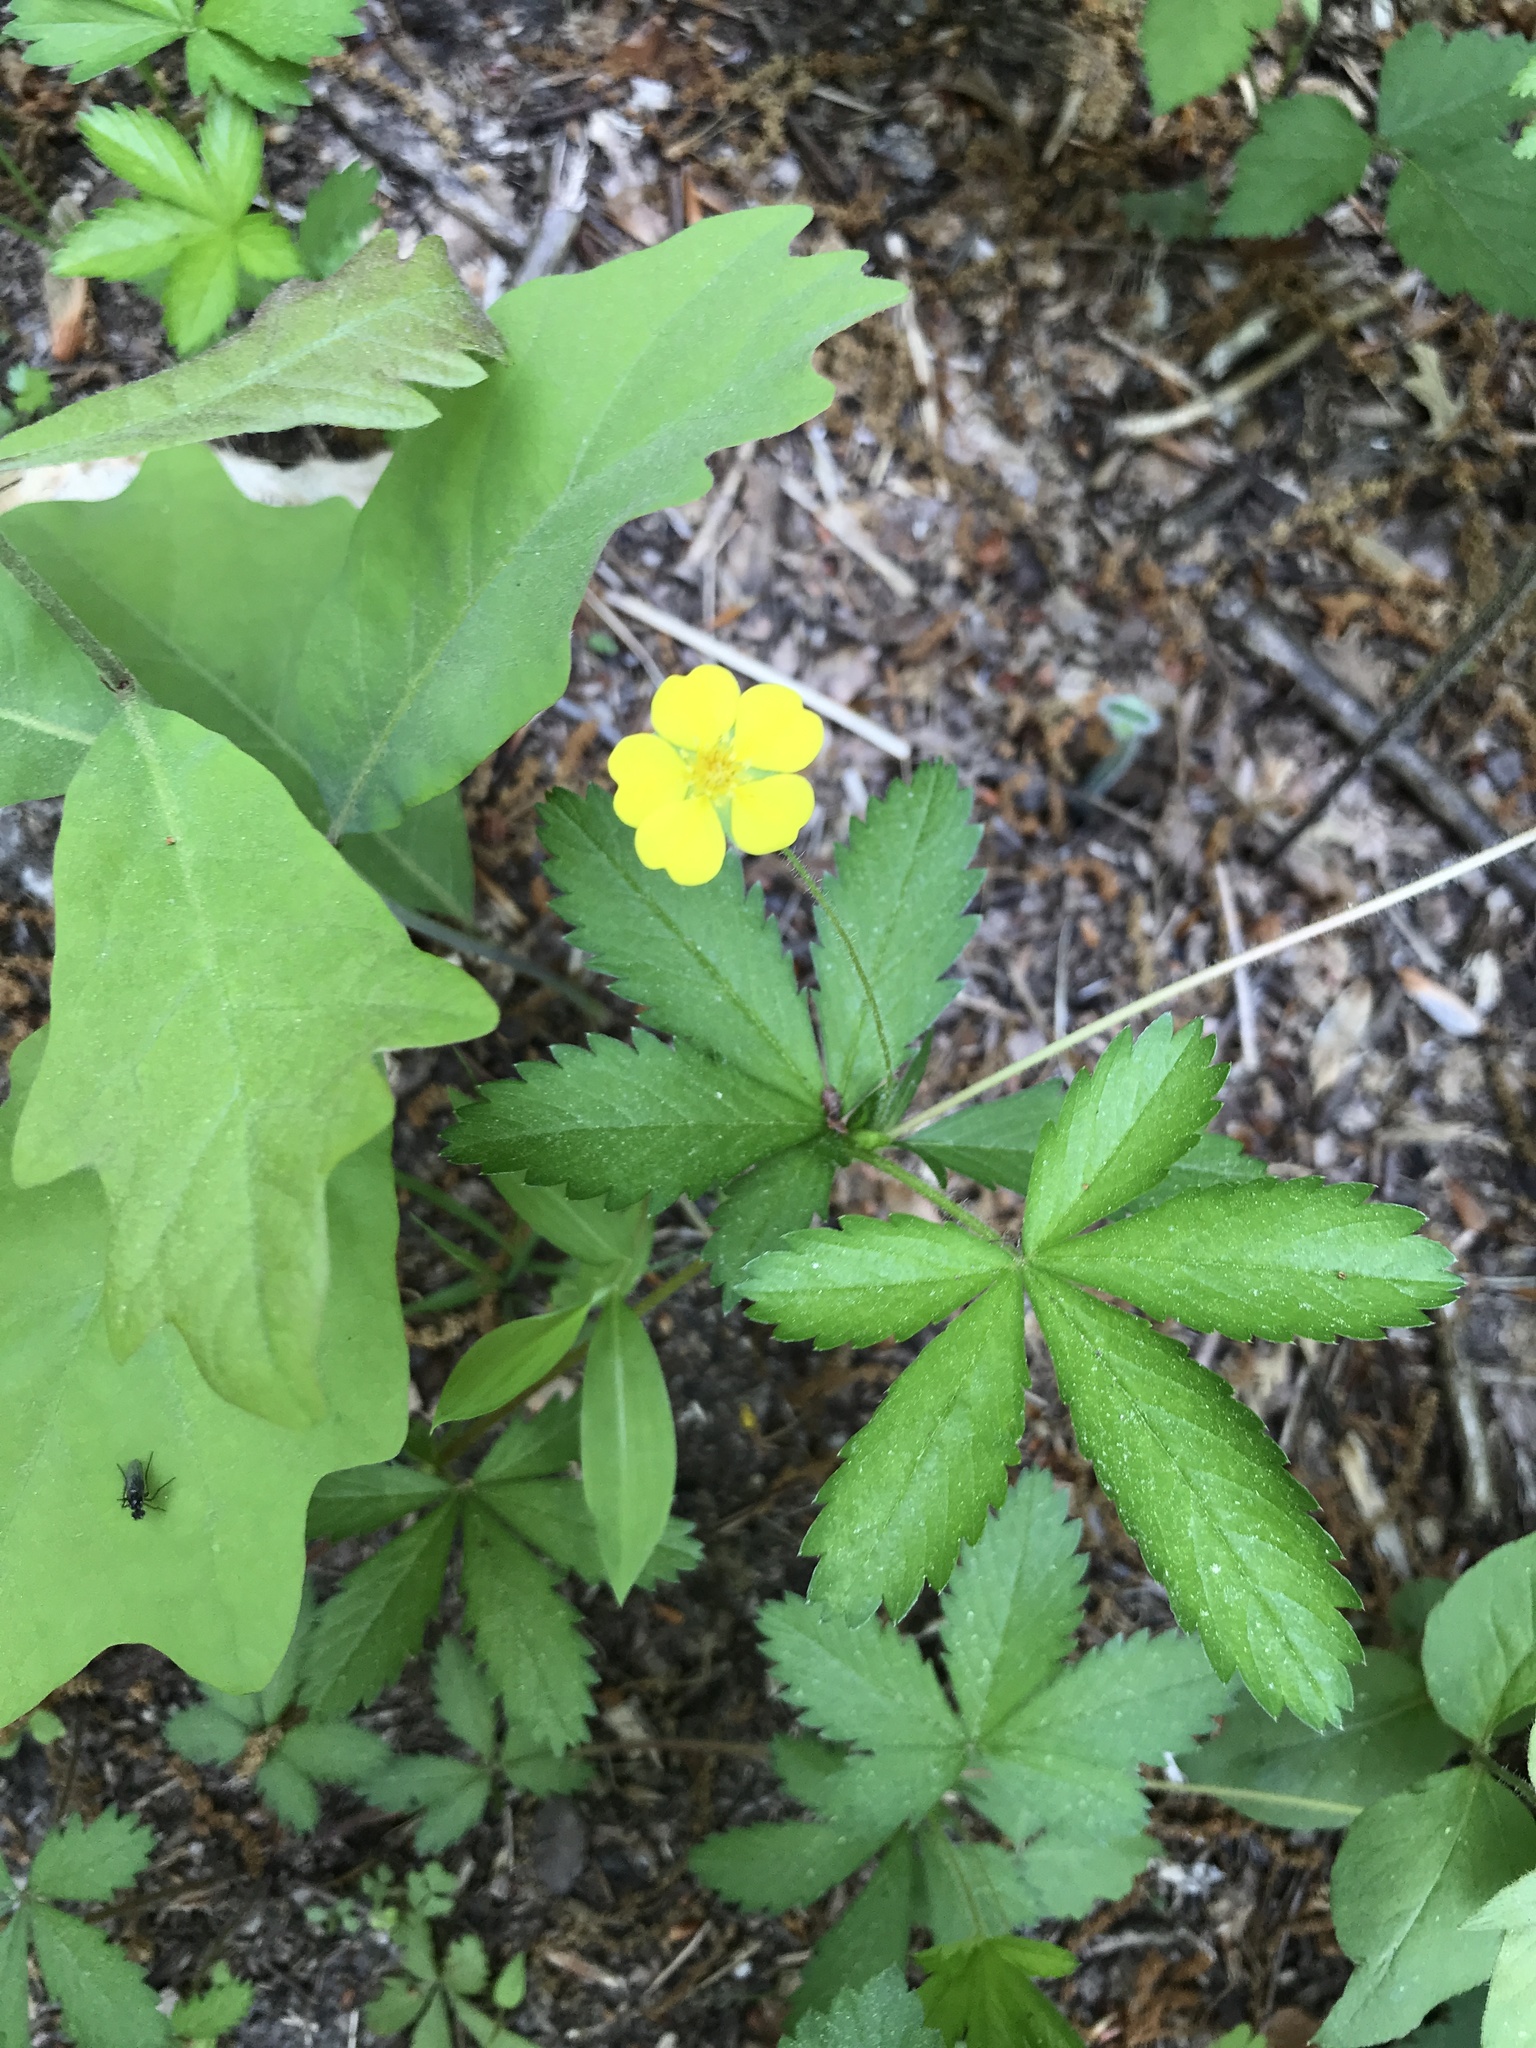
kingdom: Plantae
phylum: Tracheophyta
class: Magnoliopsida
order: Rosales
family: Rosaceae
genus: Potentilla
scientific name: Potentilla simplex
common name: Old field cinquefoil
